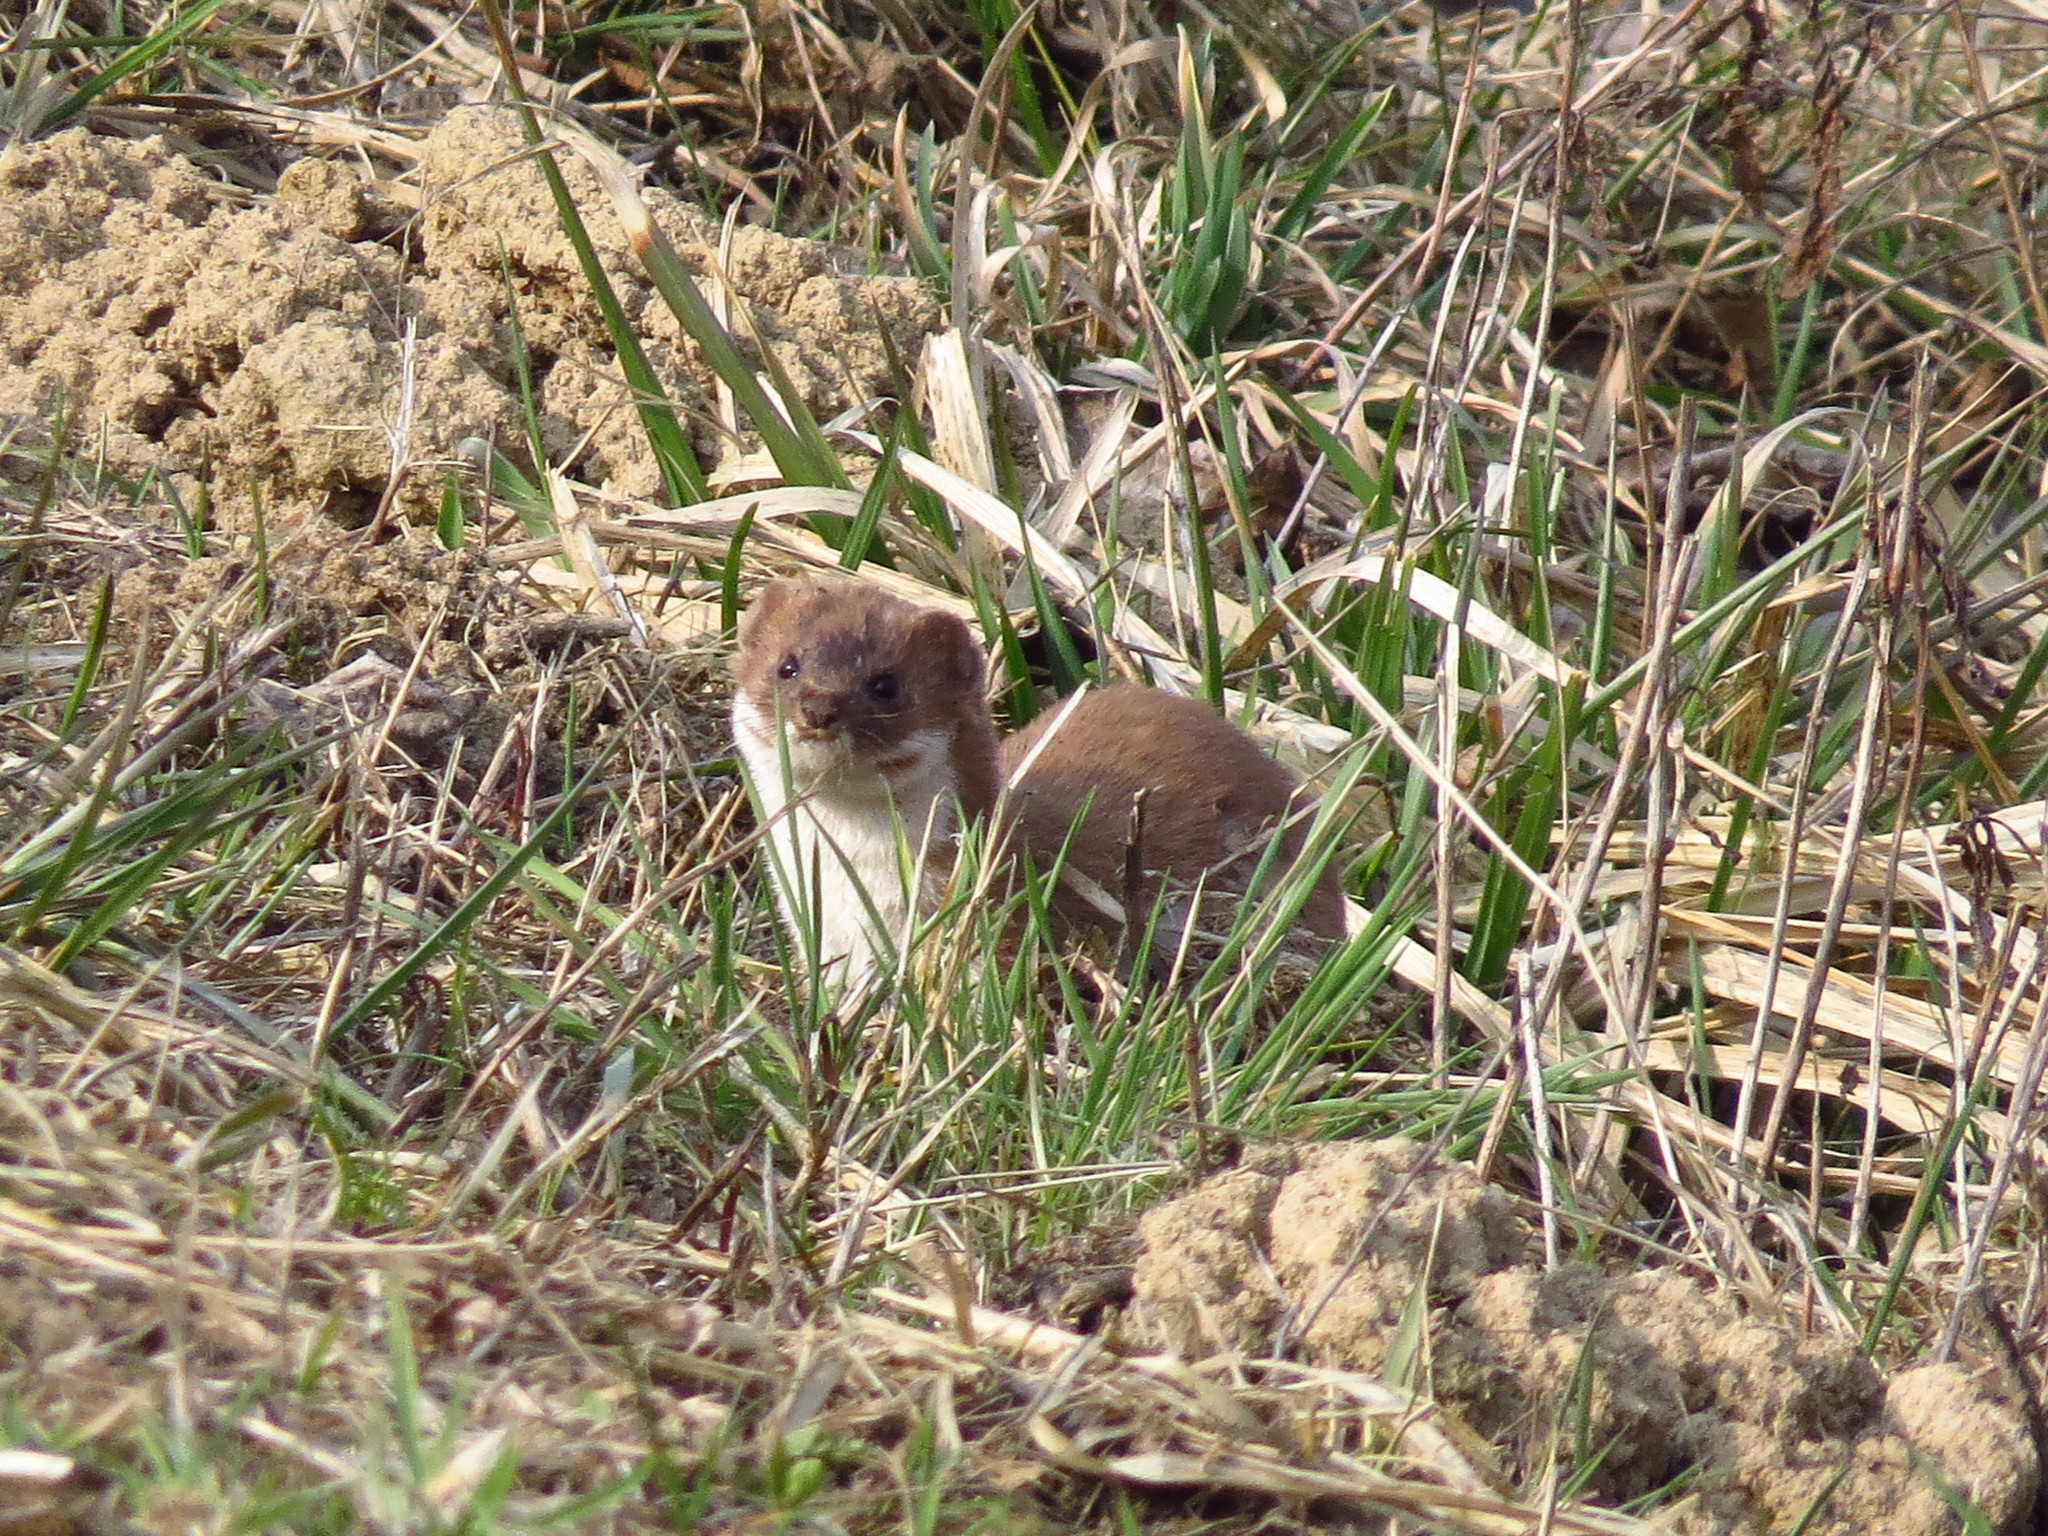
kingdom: Animalia
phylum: Chordata
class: Mammalia
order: Carnivora
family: Mustelidae
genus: Mustela
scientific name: Mustela nivalis
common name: Least weasel
